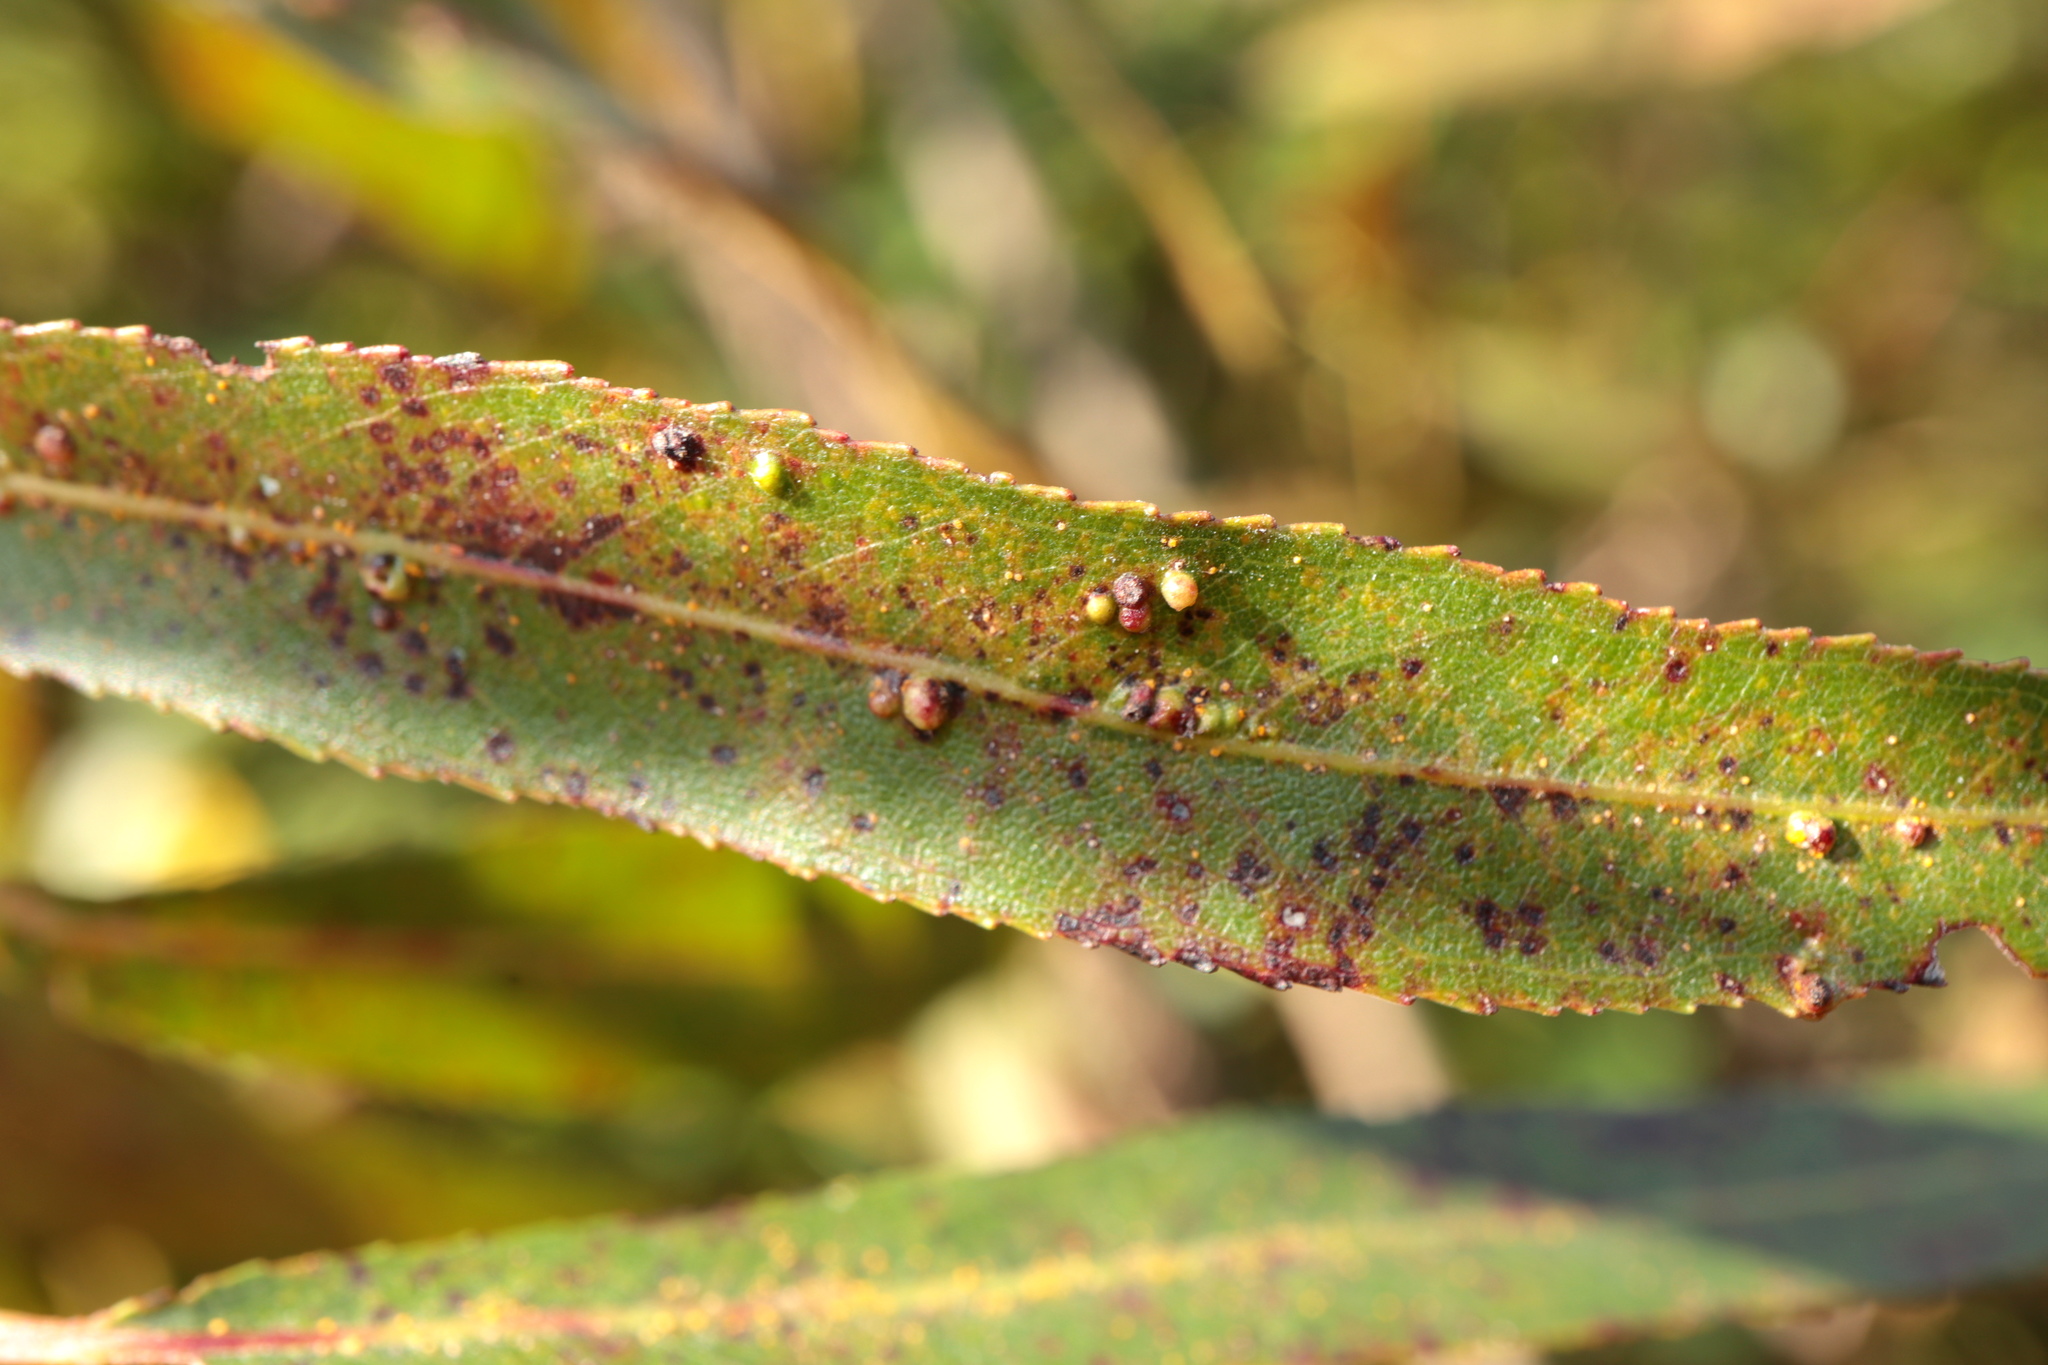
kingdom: Animalia
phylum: Arthropoda
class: Arachnida
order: Trombidiformes
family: Eriophyidae
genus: Aculus
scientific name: Aculus tetanothrix
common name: Willow bead gall mite
